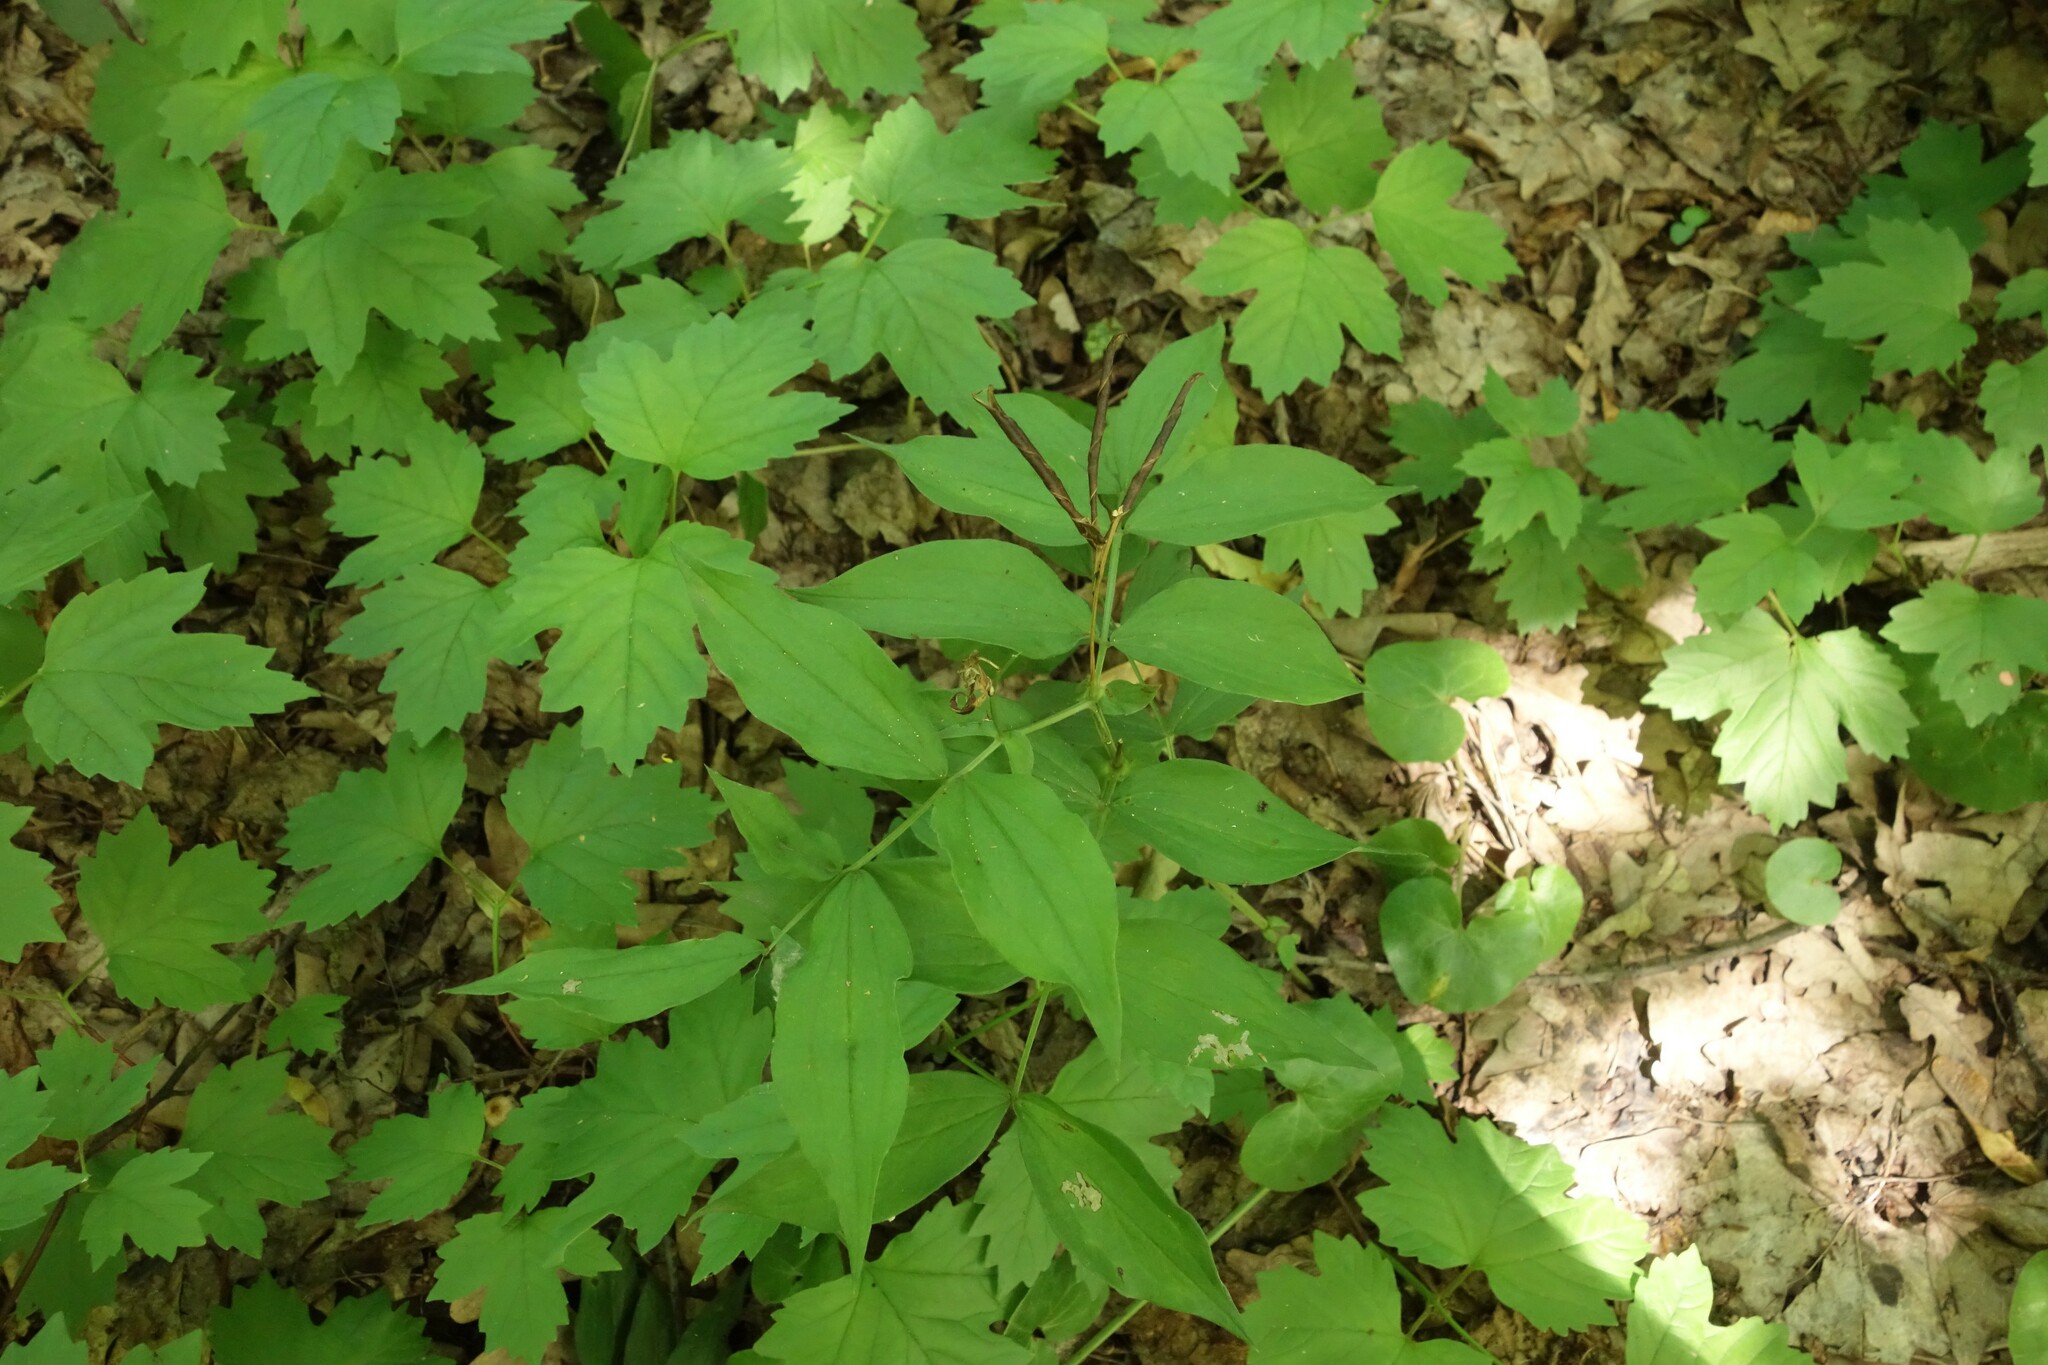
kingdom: Plantae
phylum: Tracheophyta
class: Magnoliopsida
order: Fabales
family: Fabaceae
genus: Lathyrus
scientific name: Lathyrus vernus
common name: Spring pea
